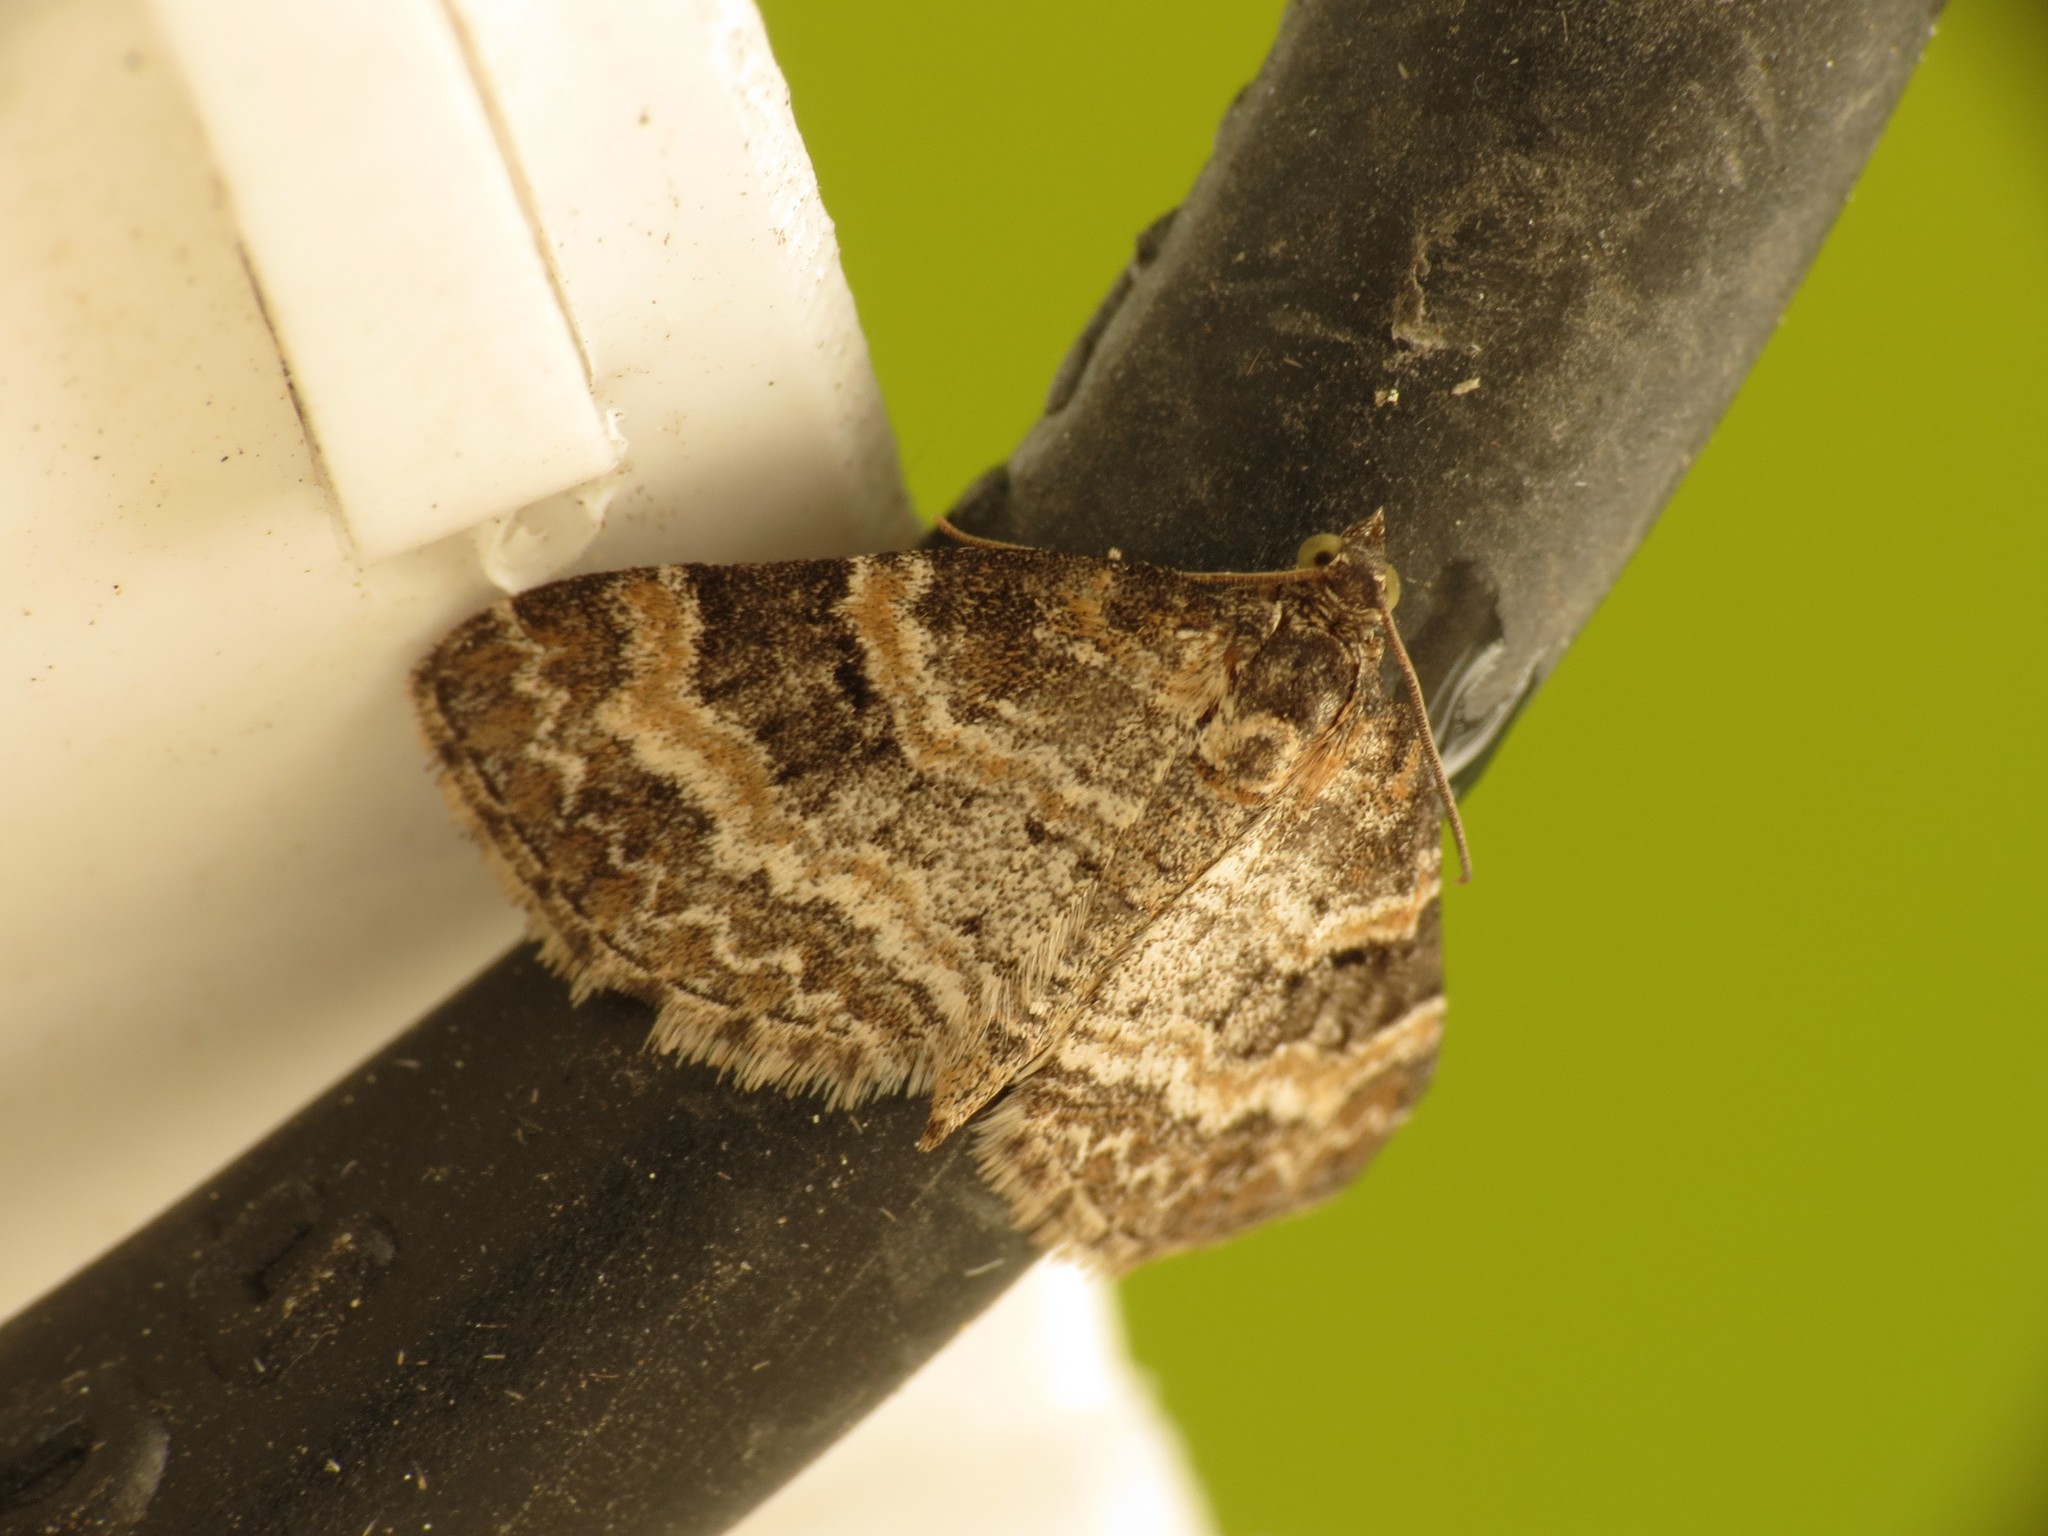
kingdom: Animalia
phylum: Arthropoda
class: Insecta
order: Lepidoptera
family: Geometridae
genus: Pterapherapteryx
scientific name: Pterapherapteryx sexalata
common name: Small seraphim
